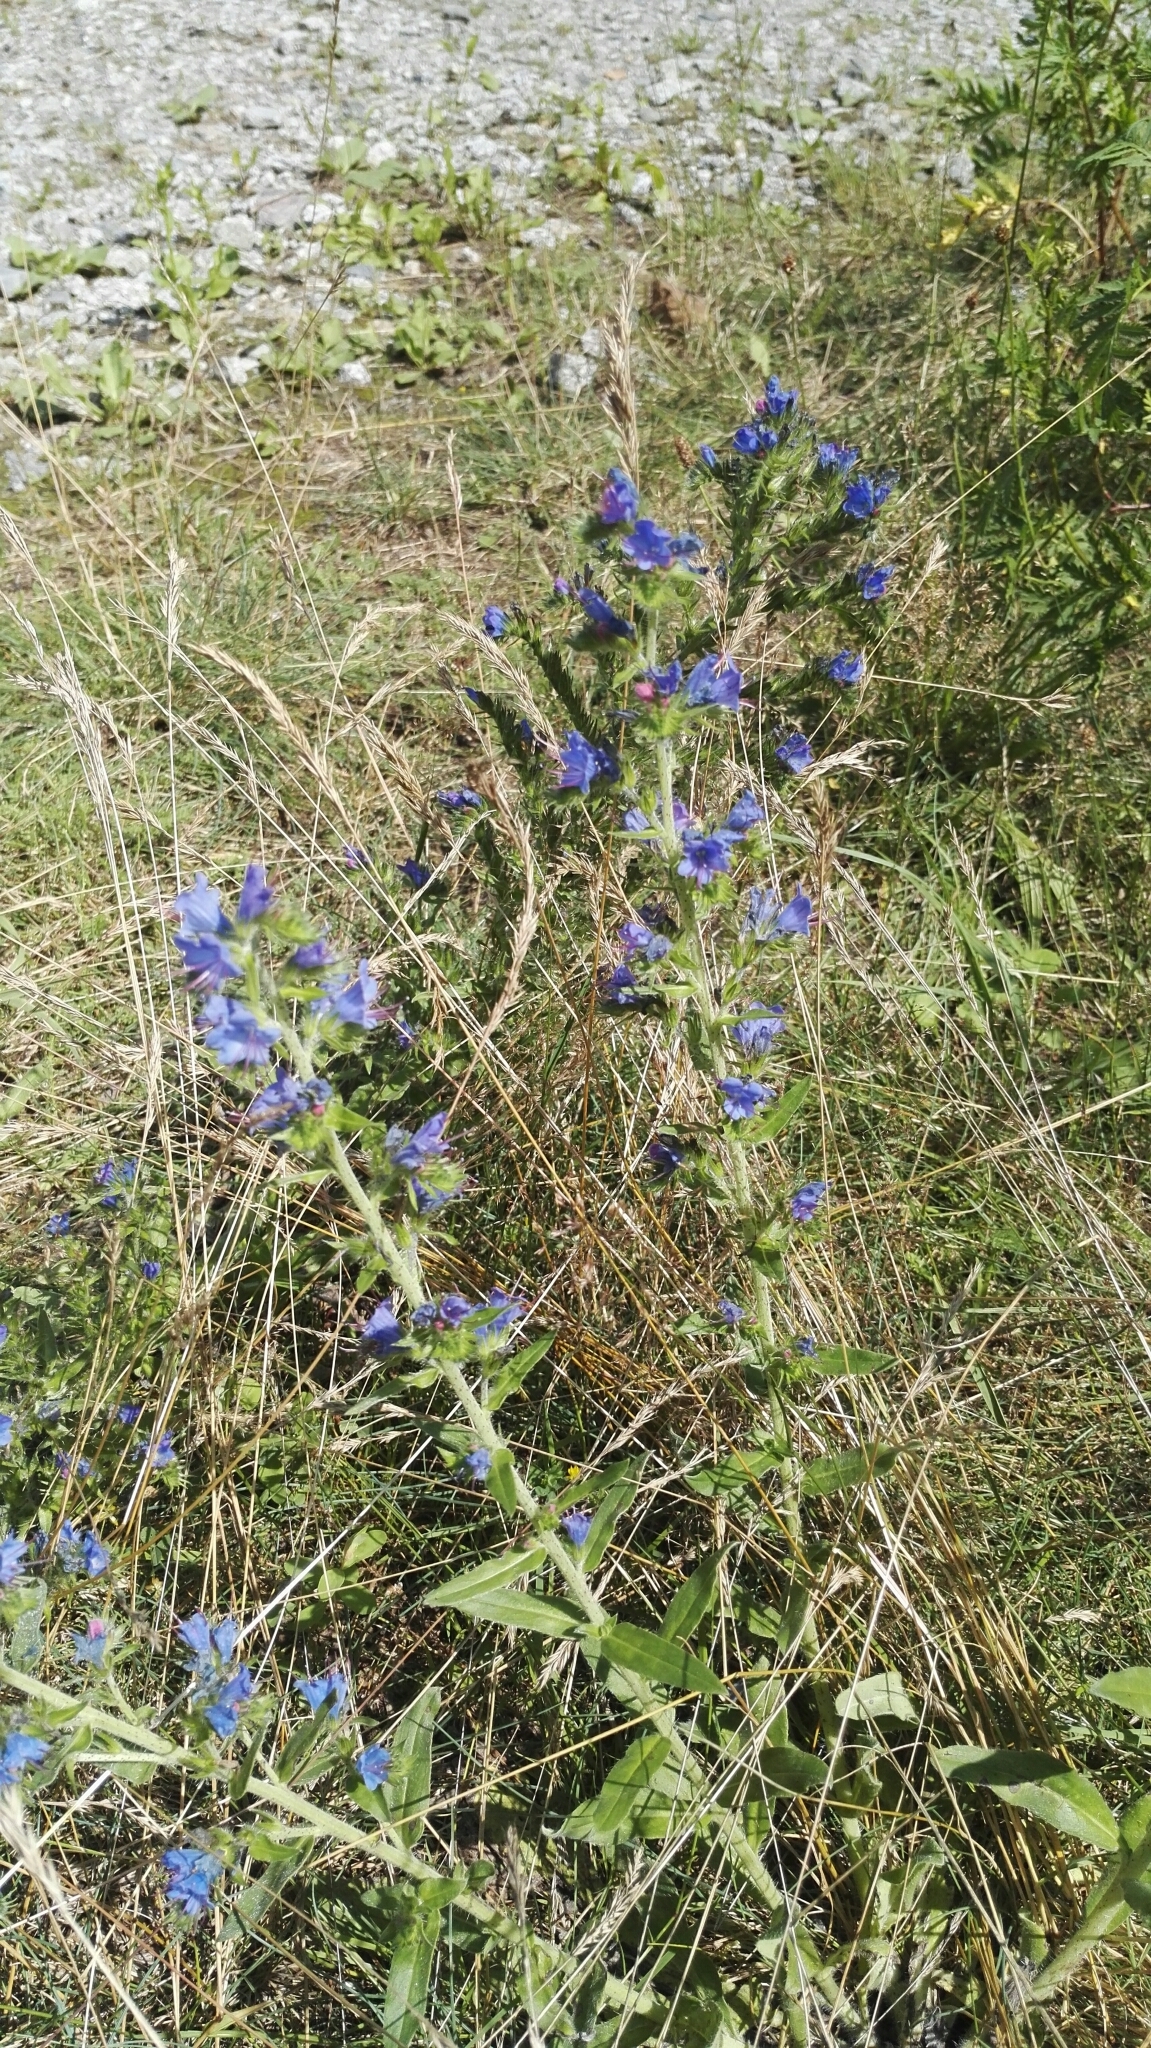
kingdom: Plantae
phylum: Tracheophyta
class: Magnoliopsida
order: Boraginales
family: Boraginaceae
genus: Echium
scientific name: Echium vulgare
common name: Common viper's bugloss
